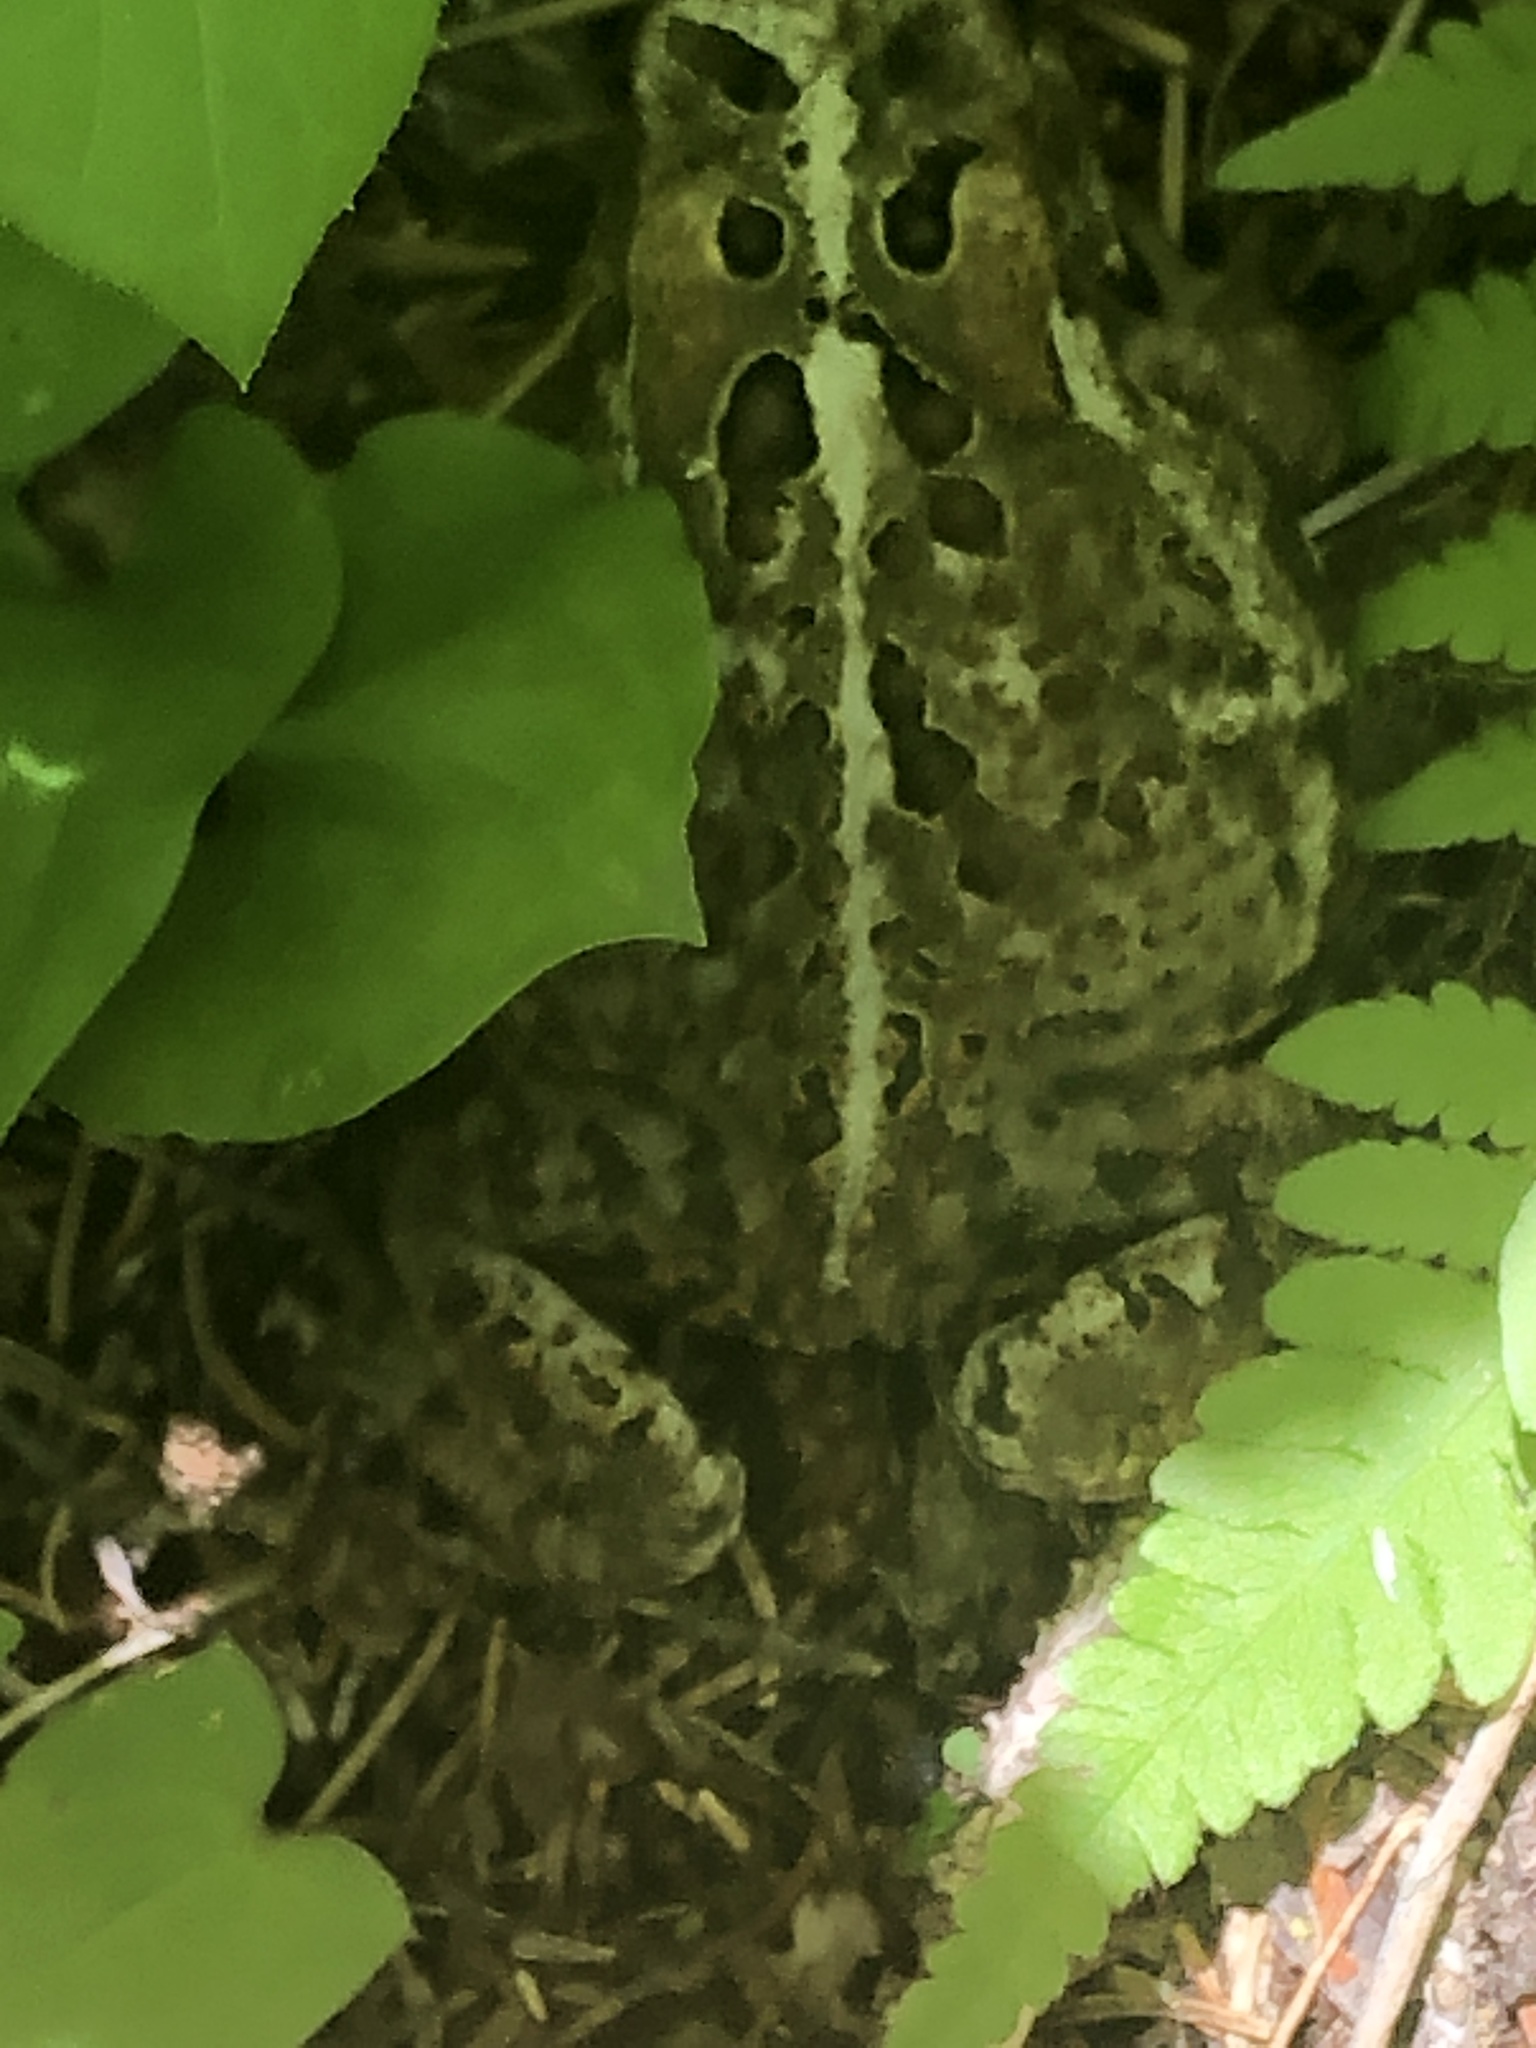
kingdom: Animalia
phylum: Chordata
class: Amphibia
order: Anura
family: Bufonidae
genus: Anaxyrus
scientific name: Anaxyrus americanus
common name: American toad
